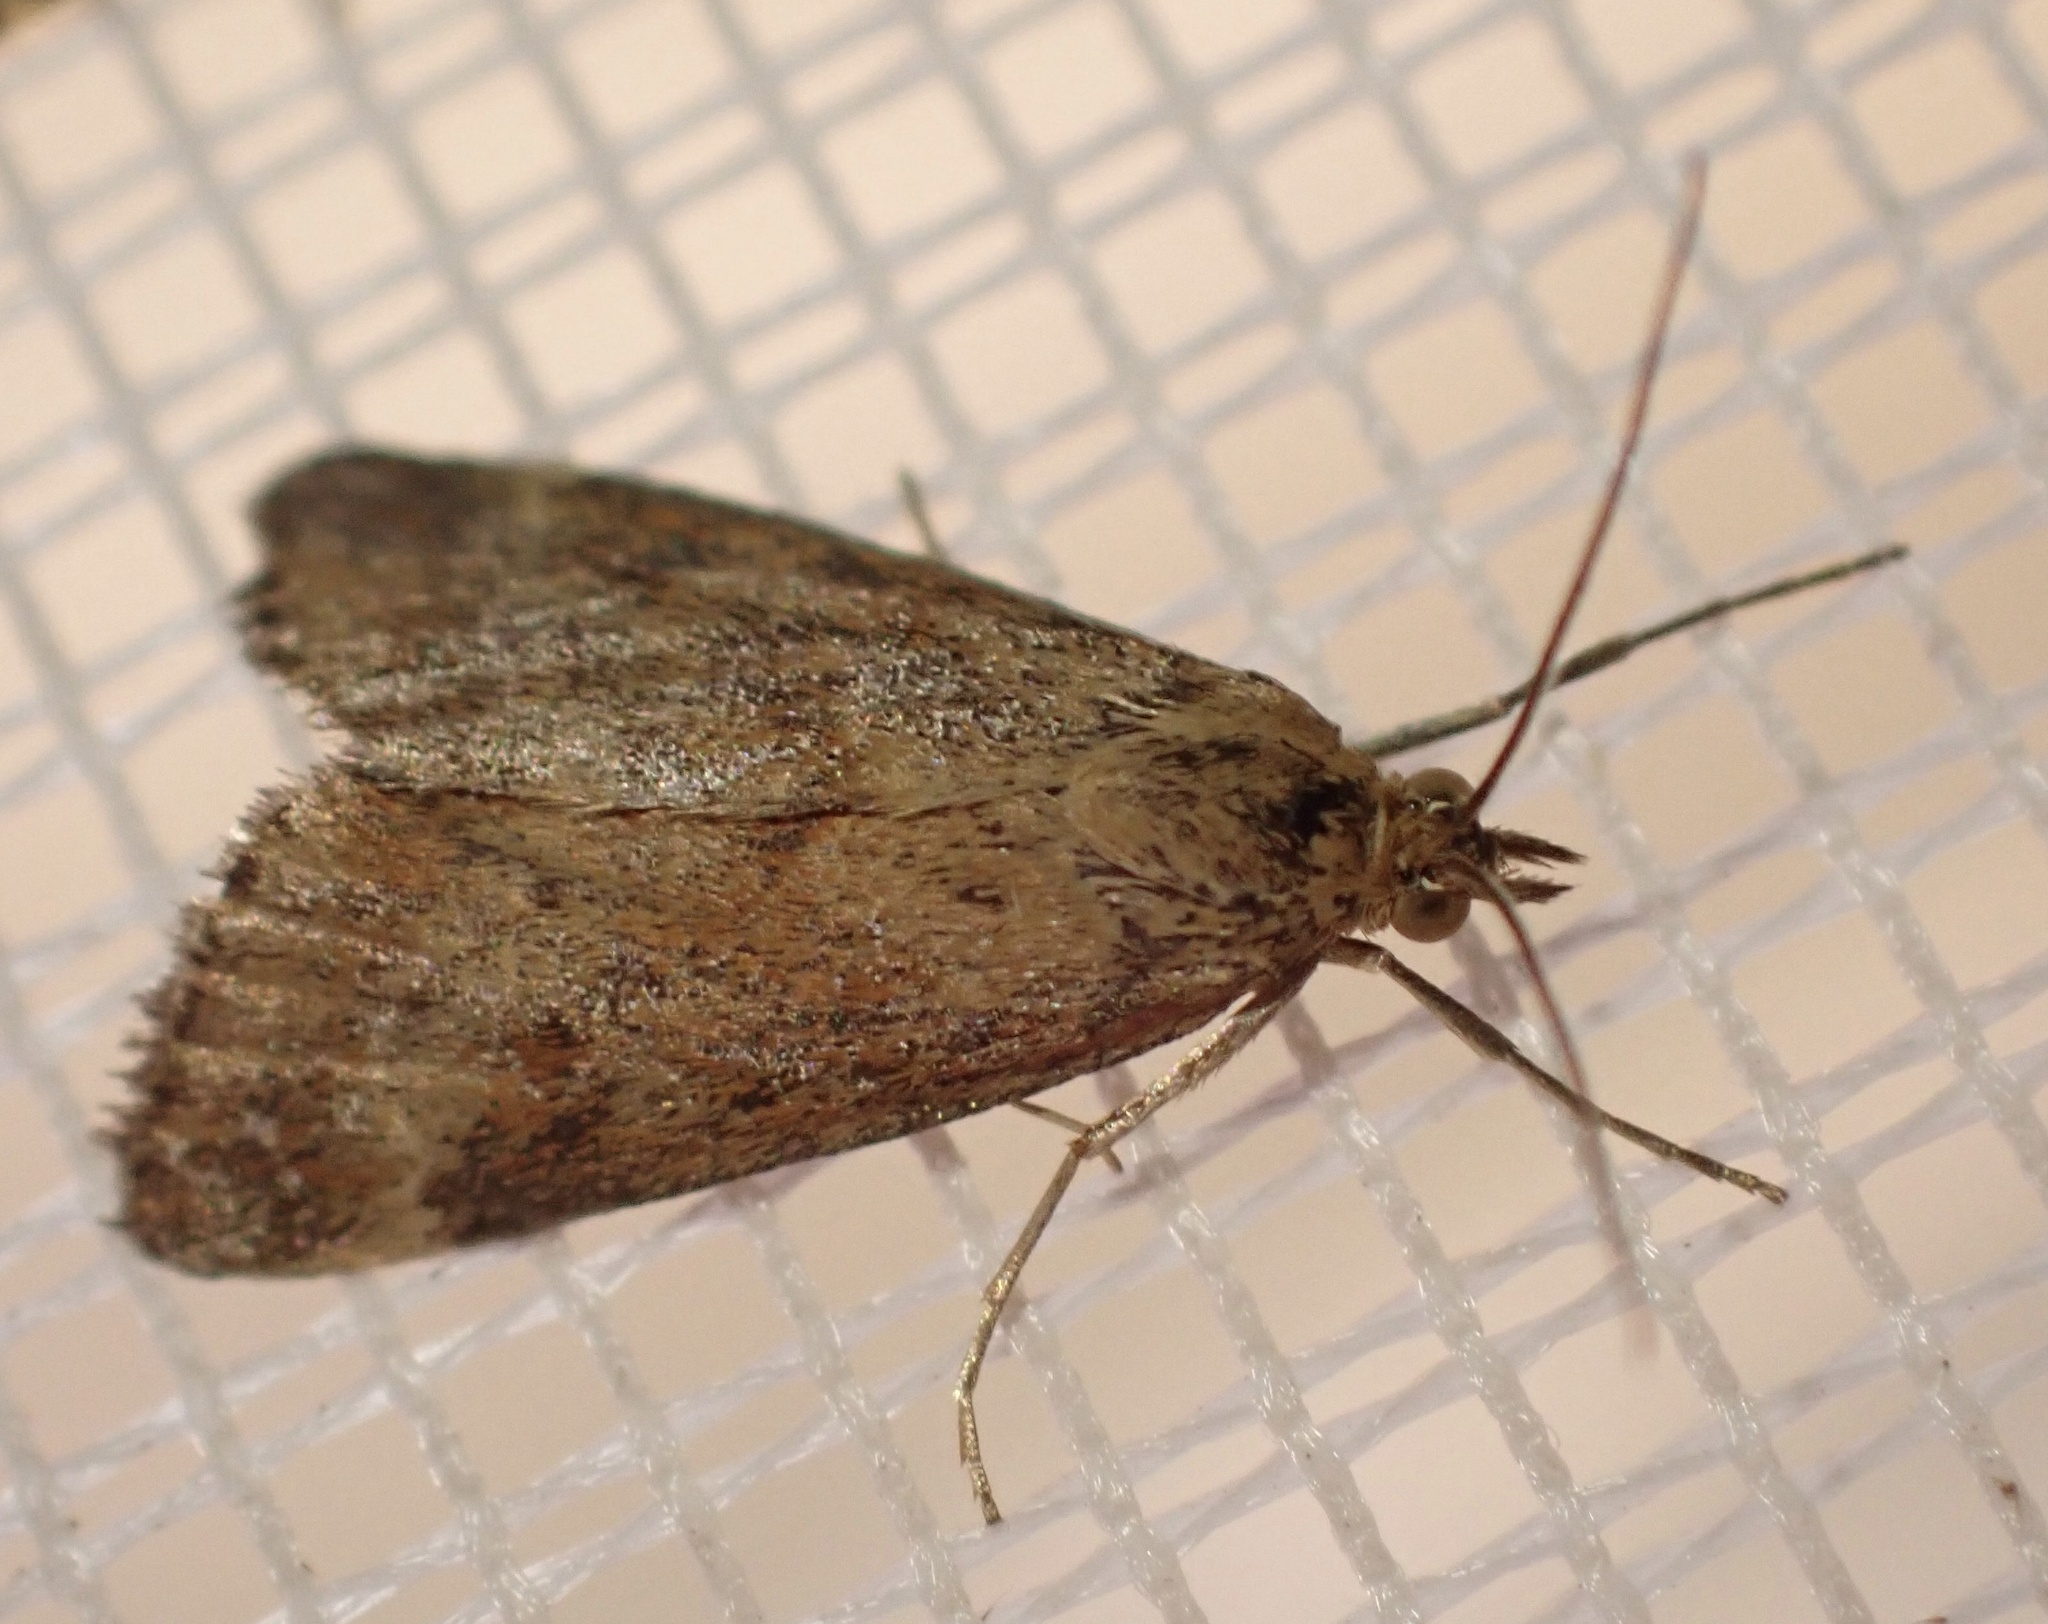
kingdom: Animalia
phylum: Arthropoda
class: Insecta
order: Lepidoptera
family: Crambidae
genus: Pyrausta
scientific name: Pyrausta despicata
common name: Straw-barred pearl
